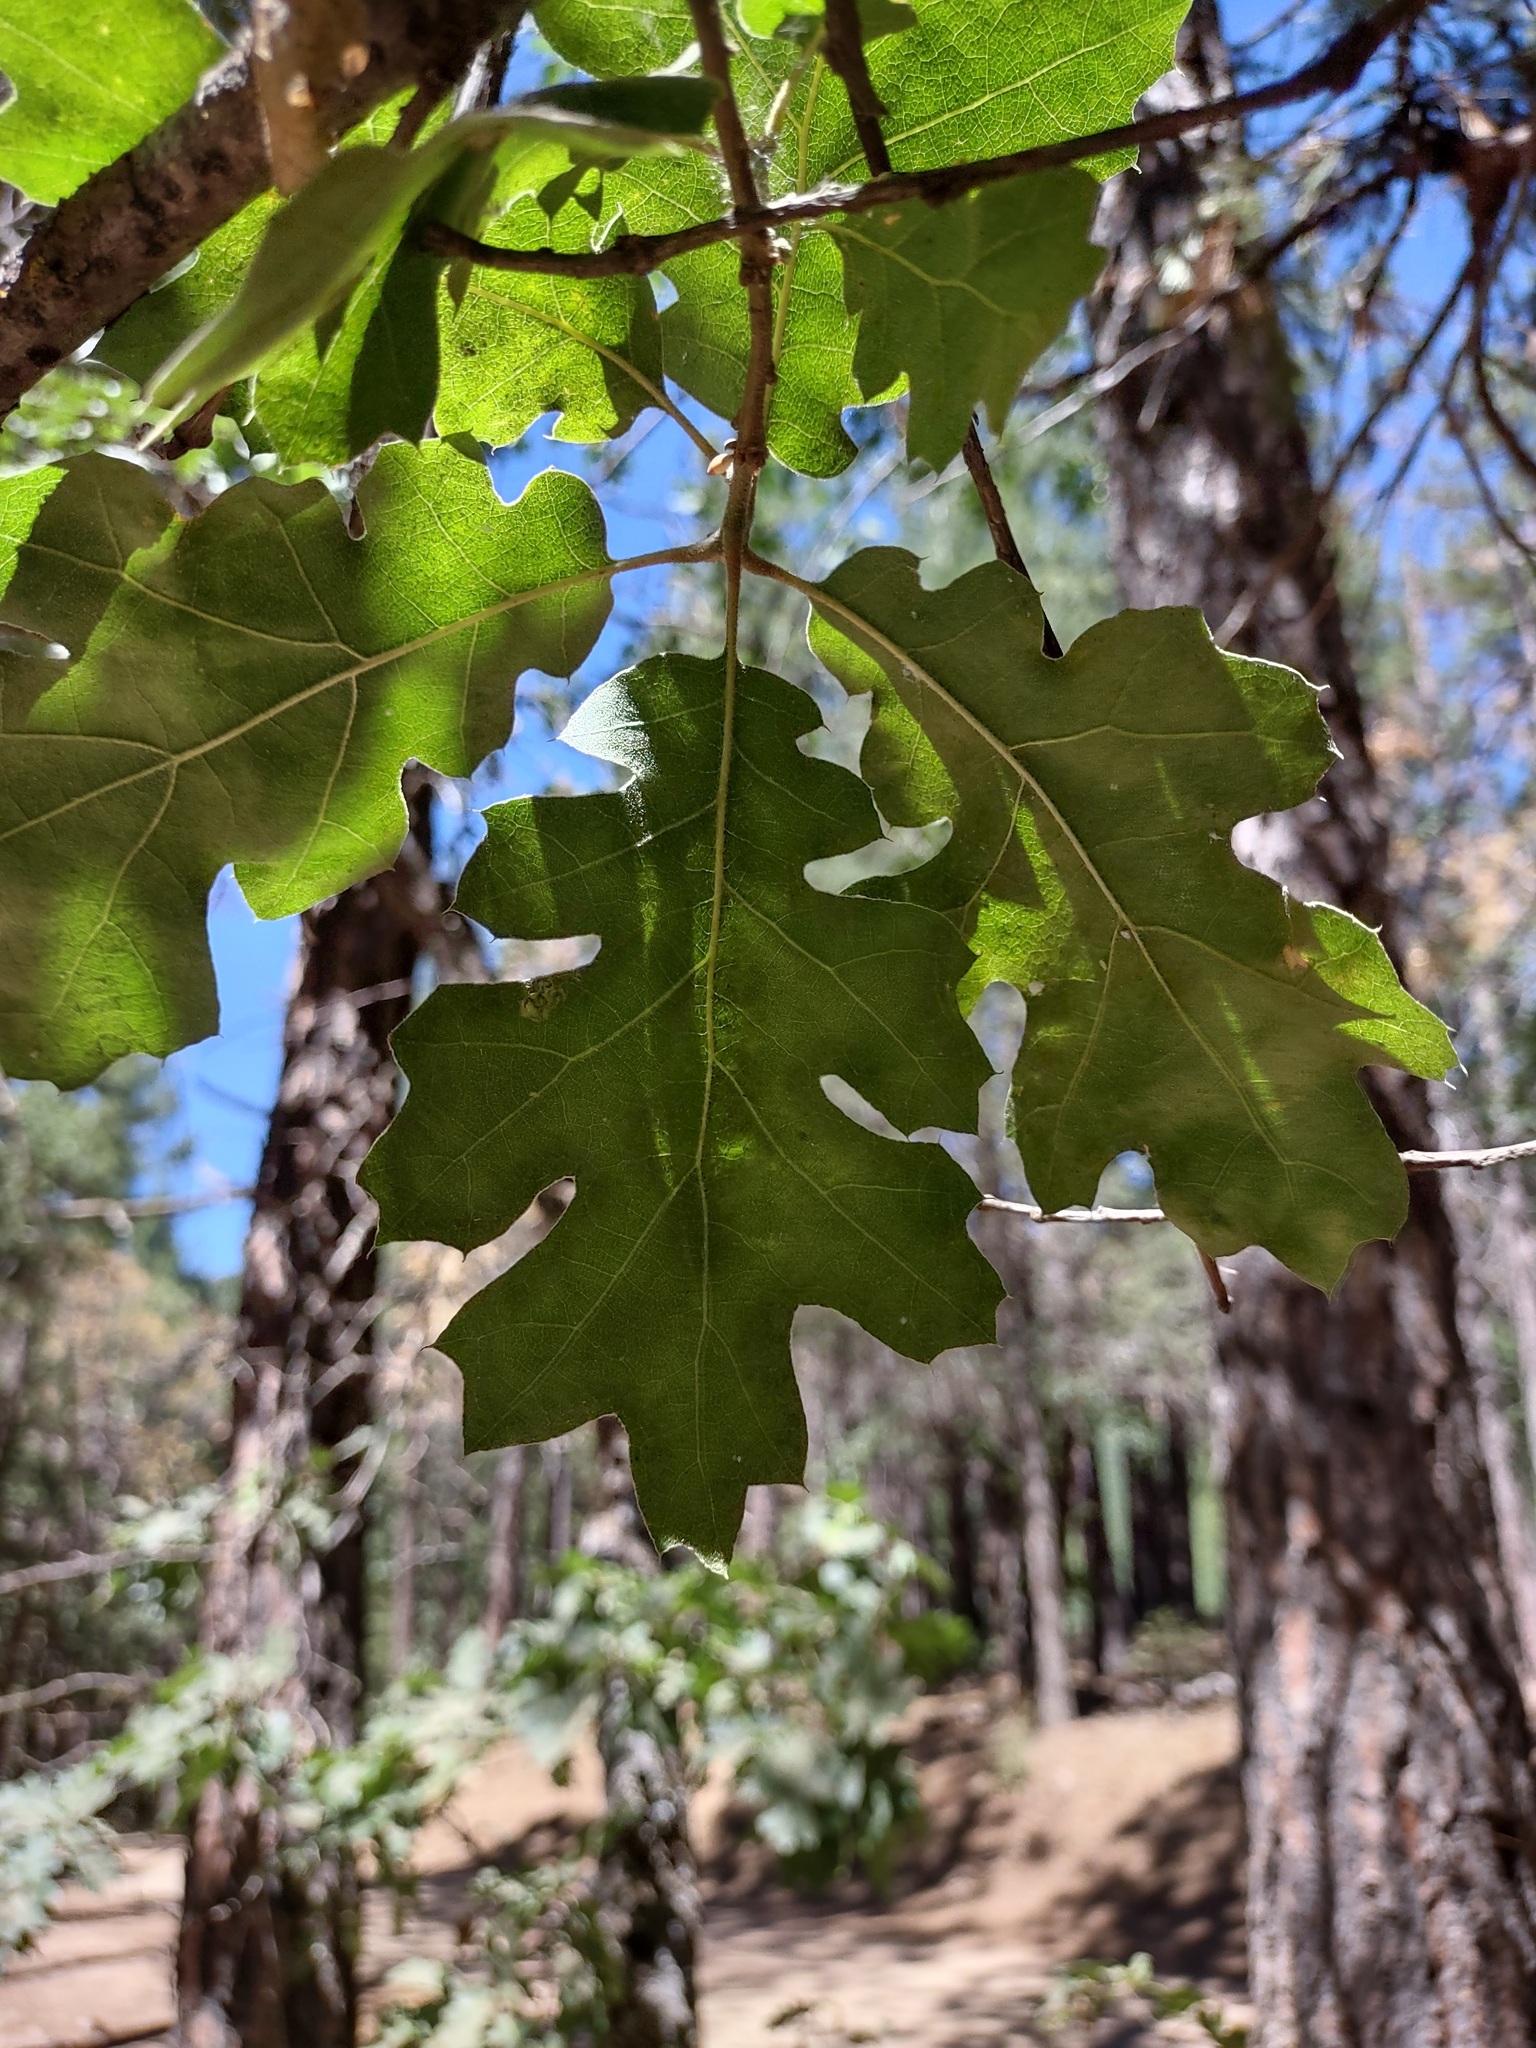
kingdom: Plantae
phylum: Tracheophyta
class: Magnoliopsida
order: Fagales
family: Fagaceae
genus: Quercus
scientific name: Quercus kelloggii
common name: California black oak
